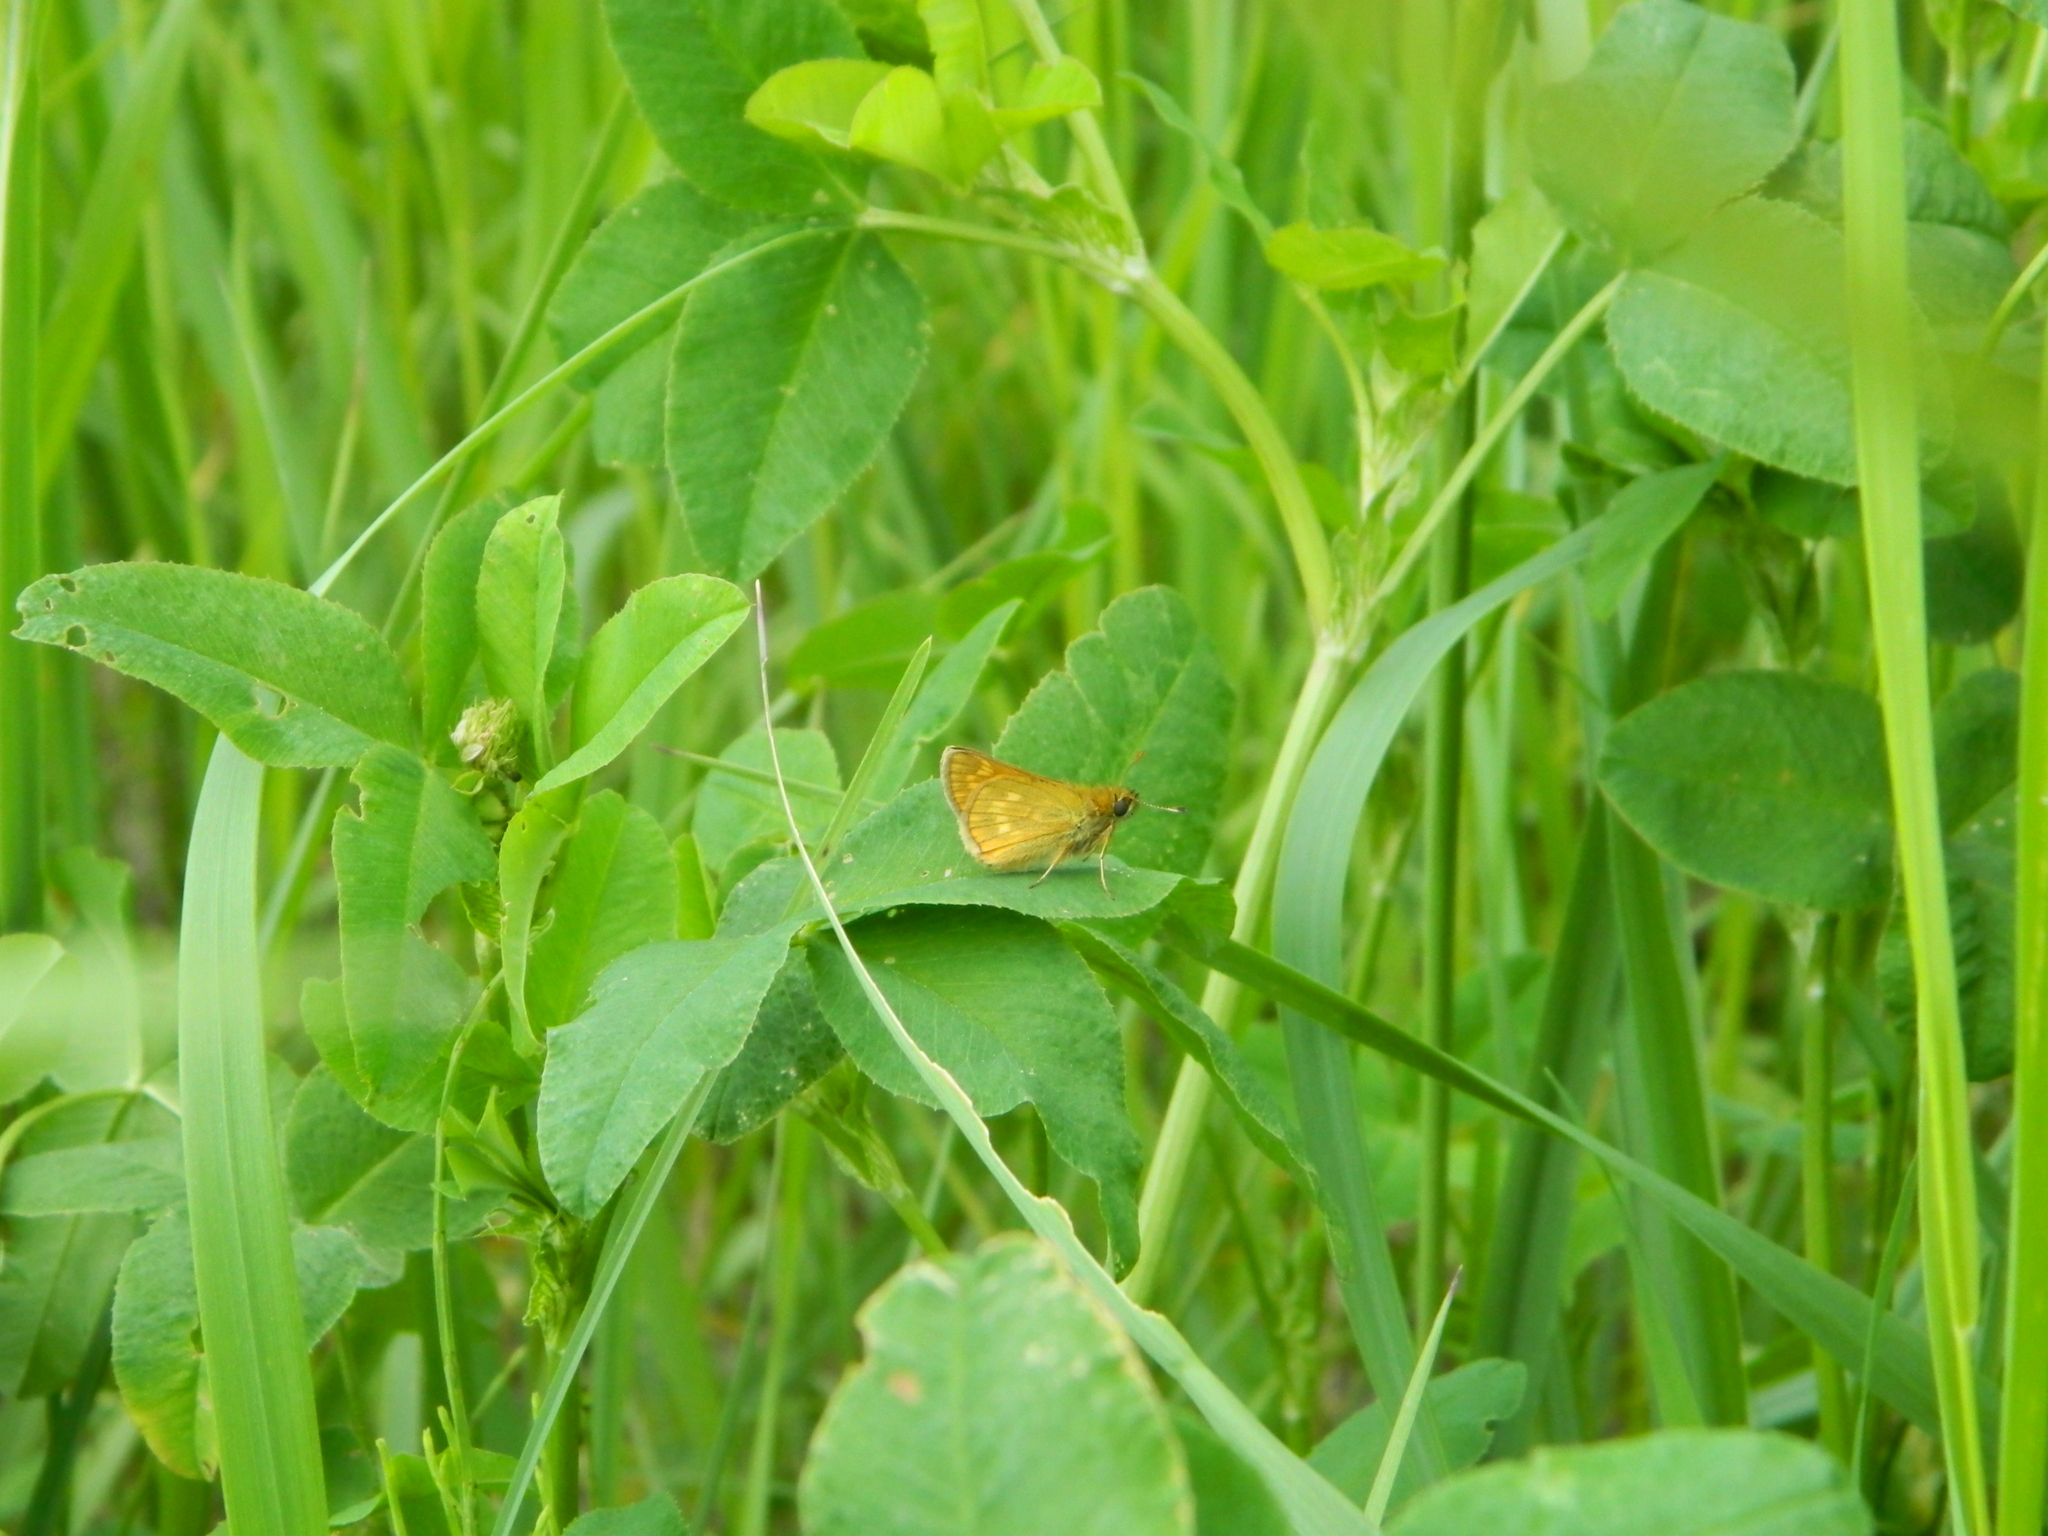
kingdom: Animalia
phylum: Arthropoda
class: Insecta
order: Lepidoptera
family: Hesperiidae
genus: Ochlodes
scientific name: Ochlodes venata
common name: Large skipper
